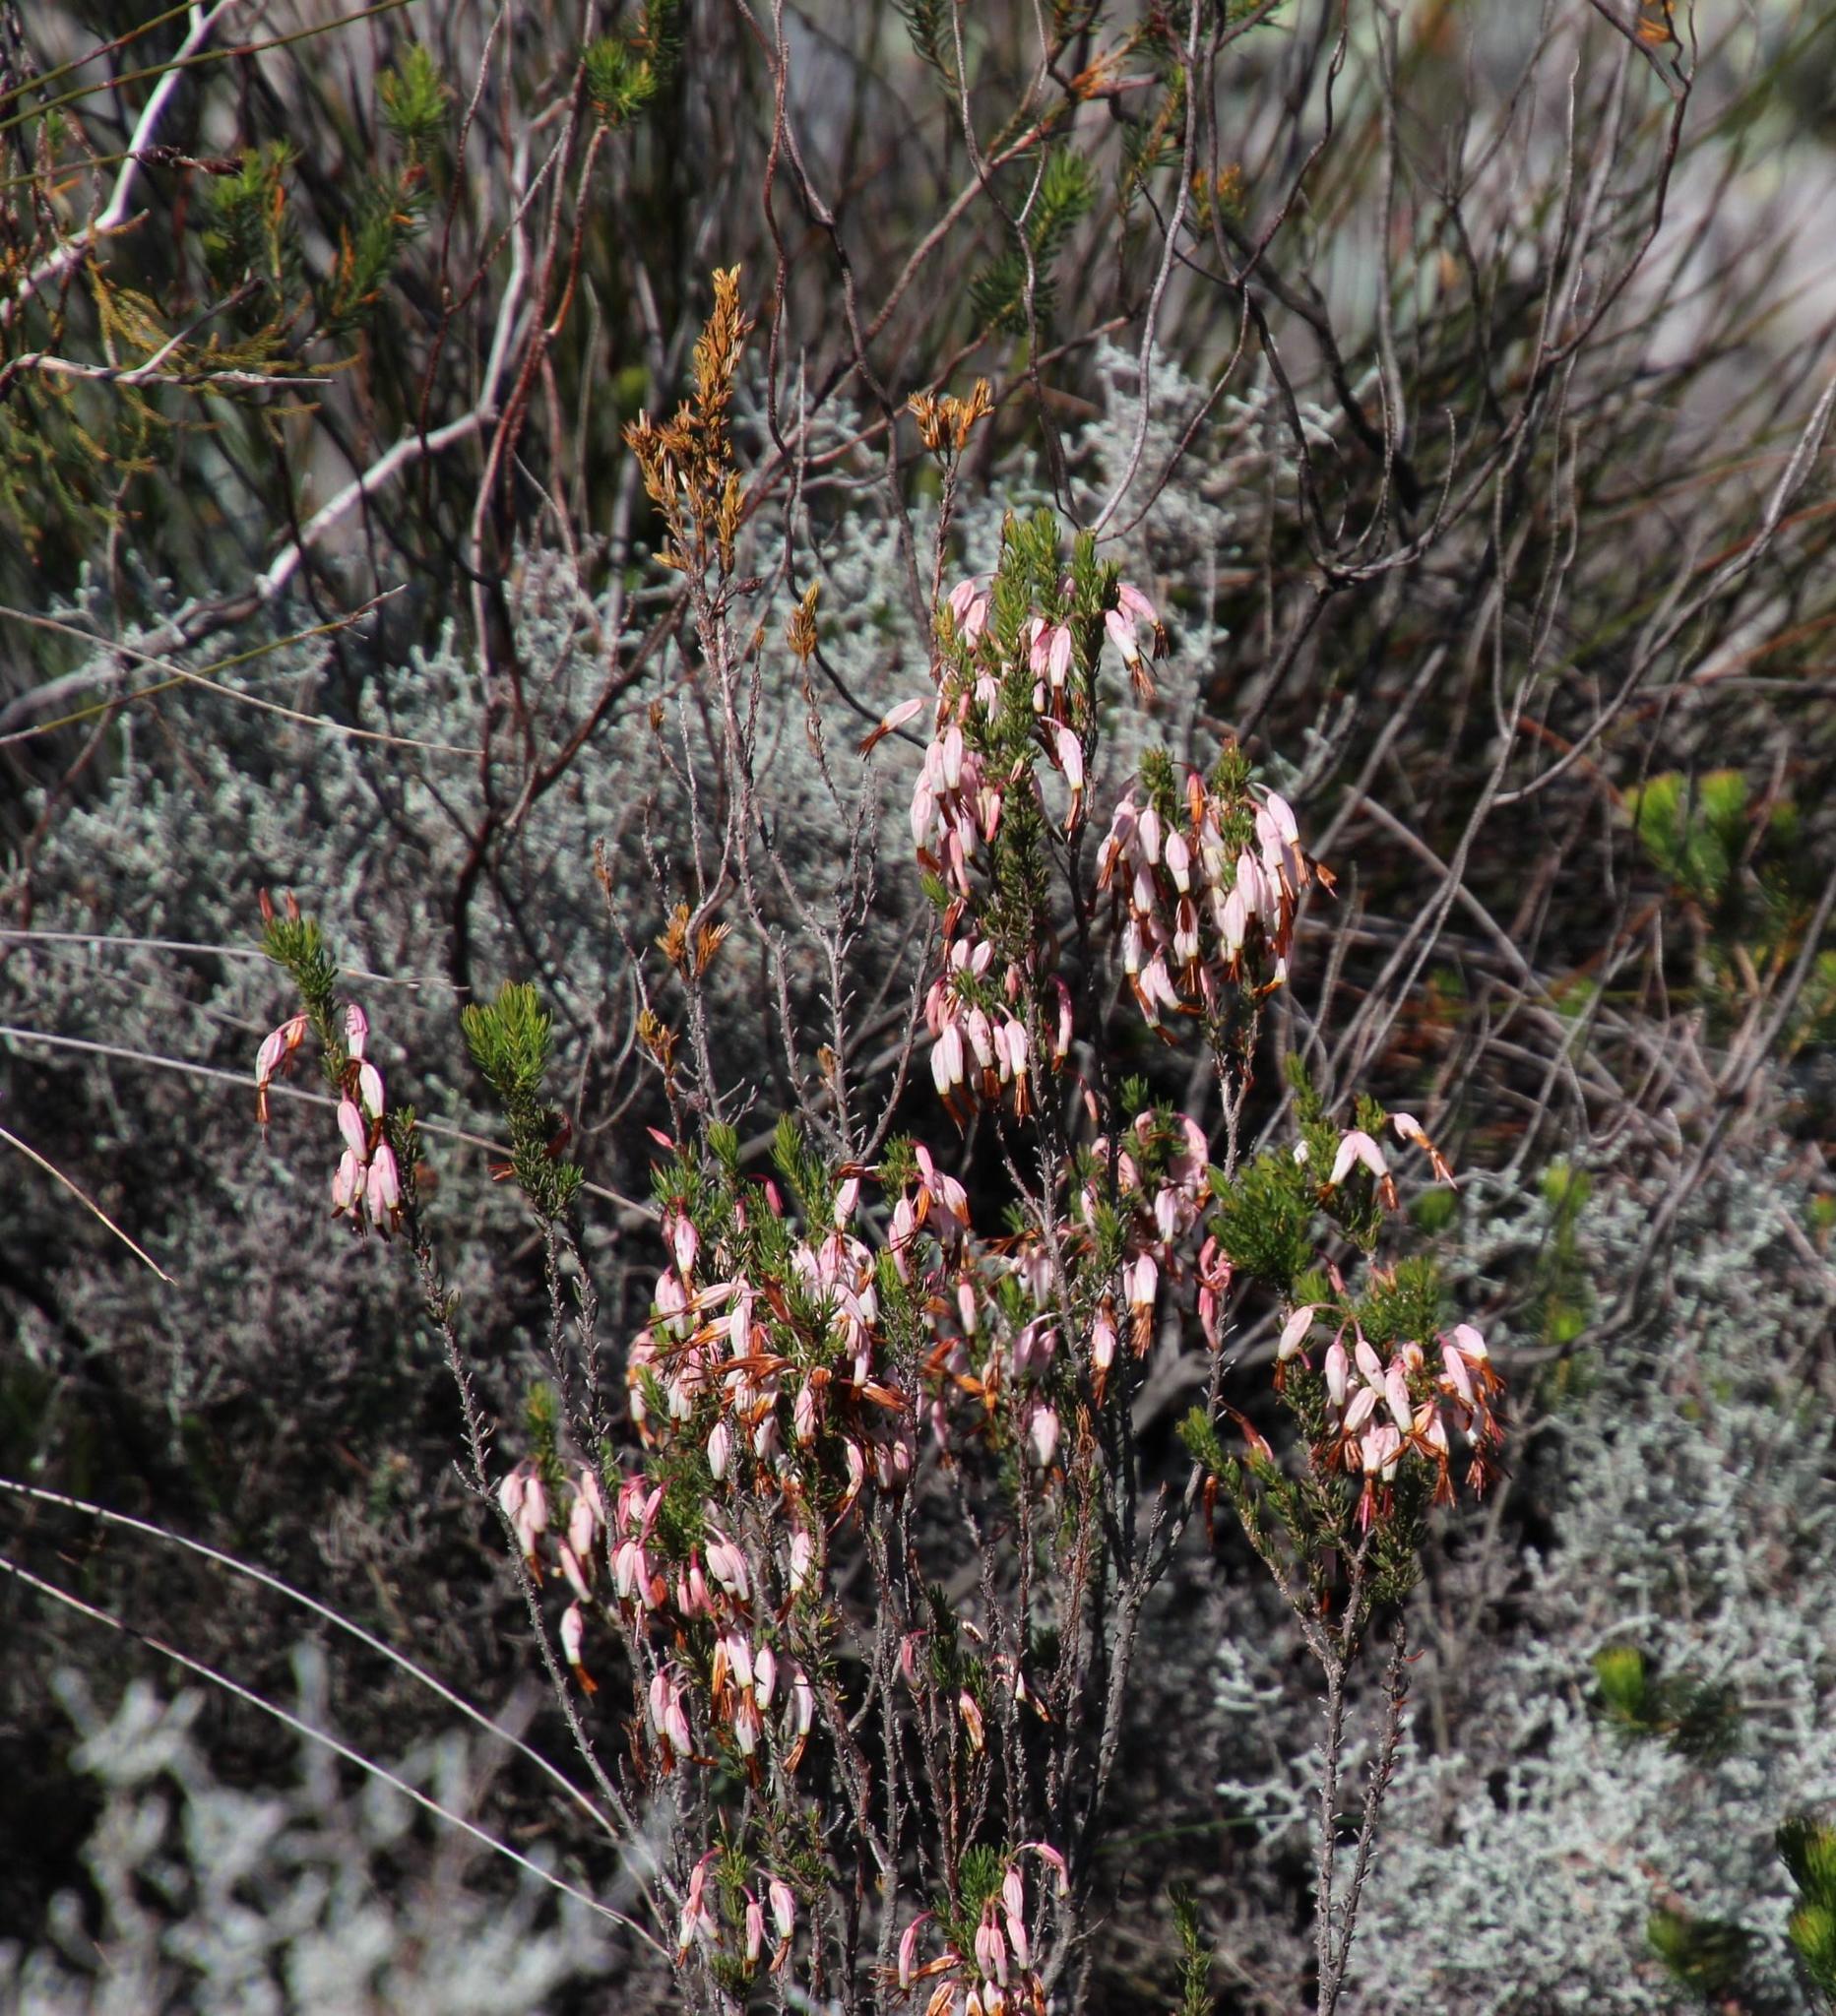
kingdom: Plantae
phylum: Tracheophyta
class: Magnoliopsida
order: Ericales
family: Ericaceae
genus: Erica
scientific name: Erica plukenetii
